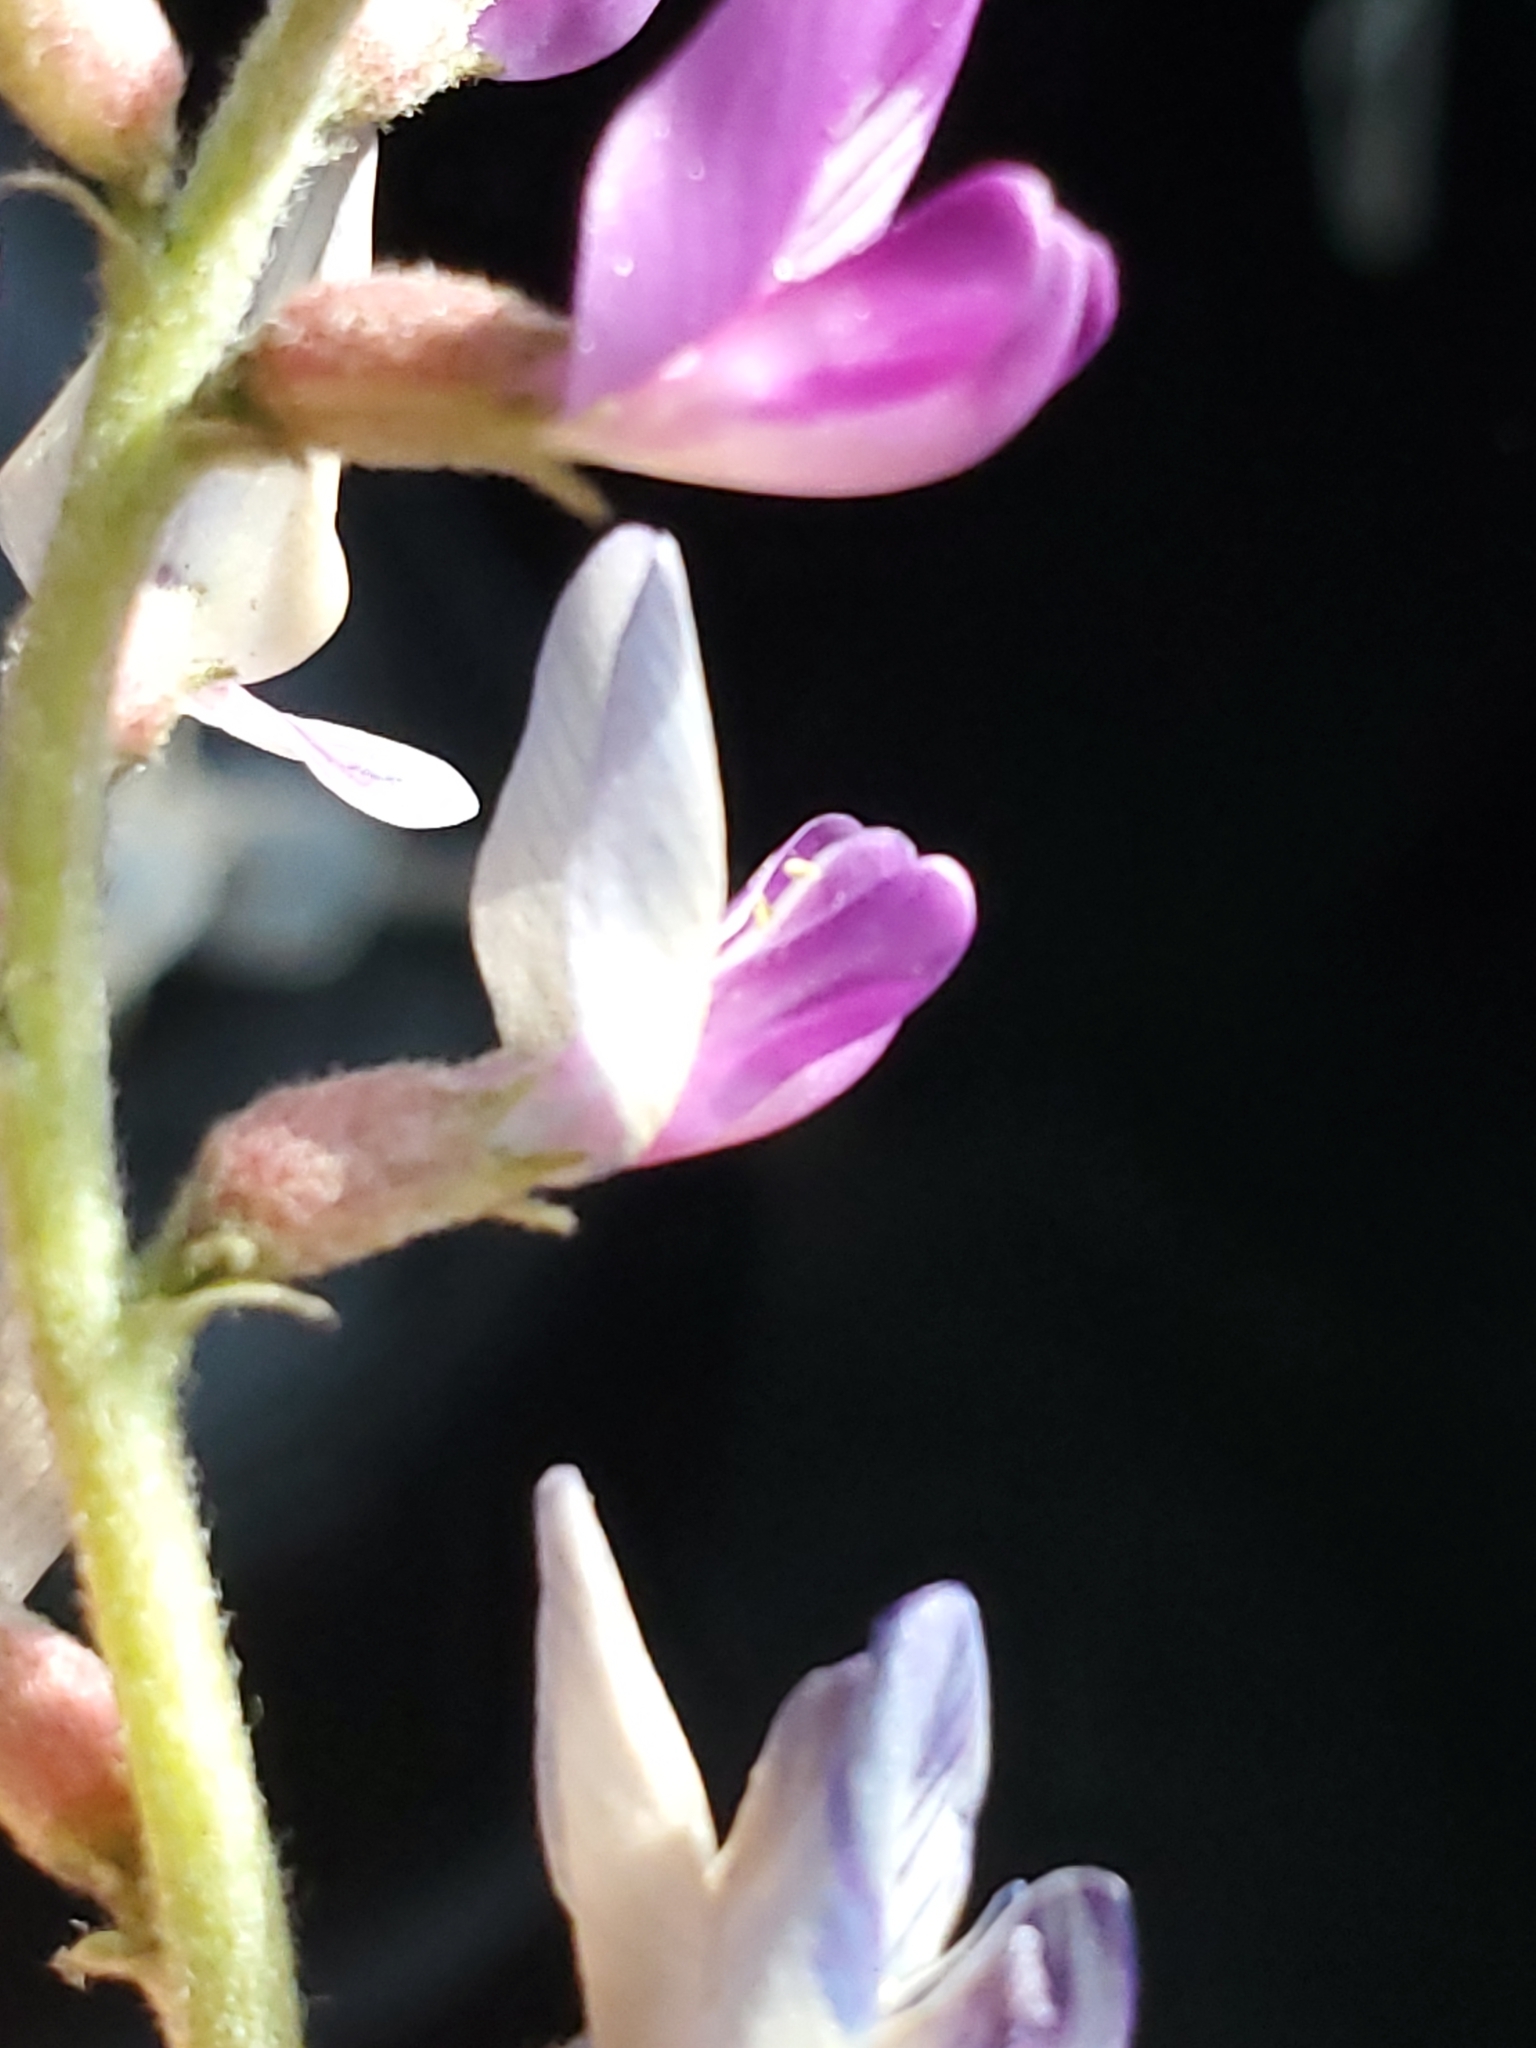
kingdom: Plantae
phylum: Tracheophyta
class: Magnoliopsida
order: Fabales
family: Fabaceae
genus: Astragalus
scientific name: Astragalus lentiginosus
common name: Freckled milkvetch
